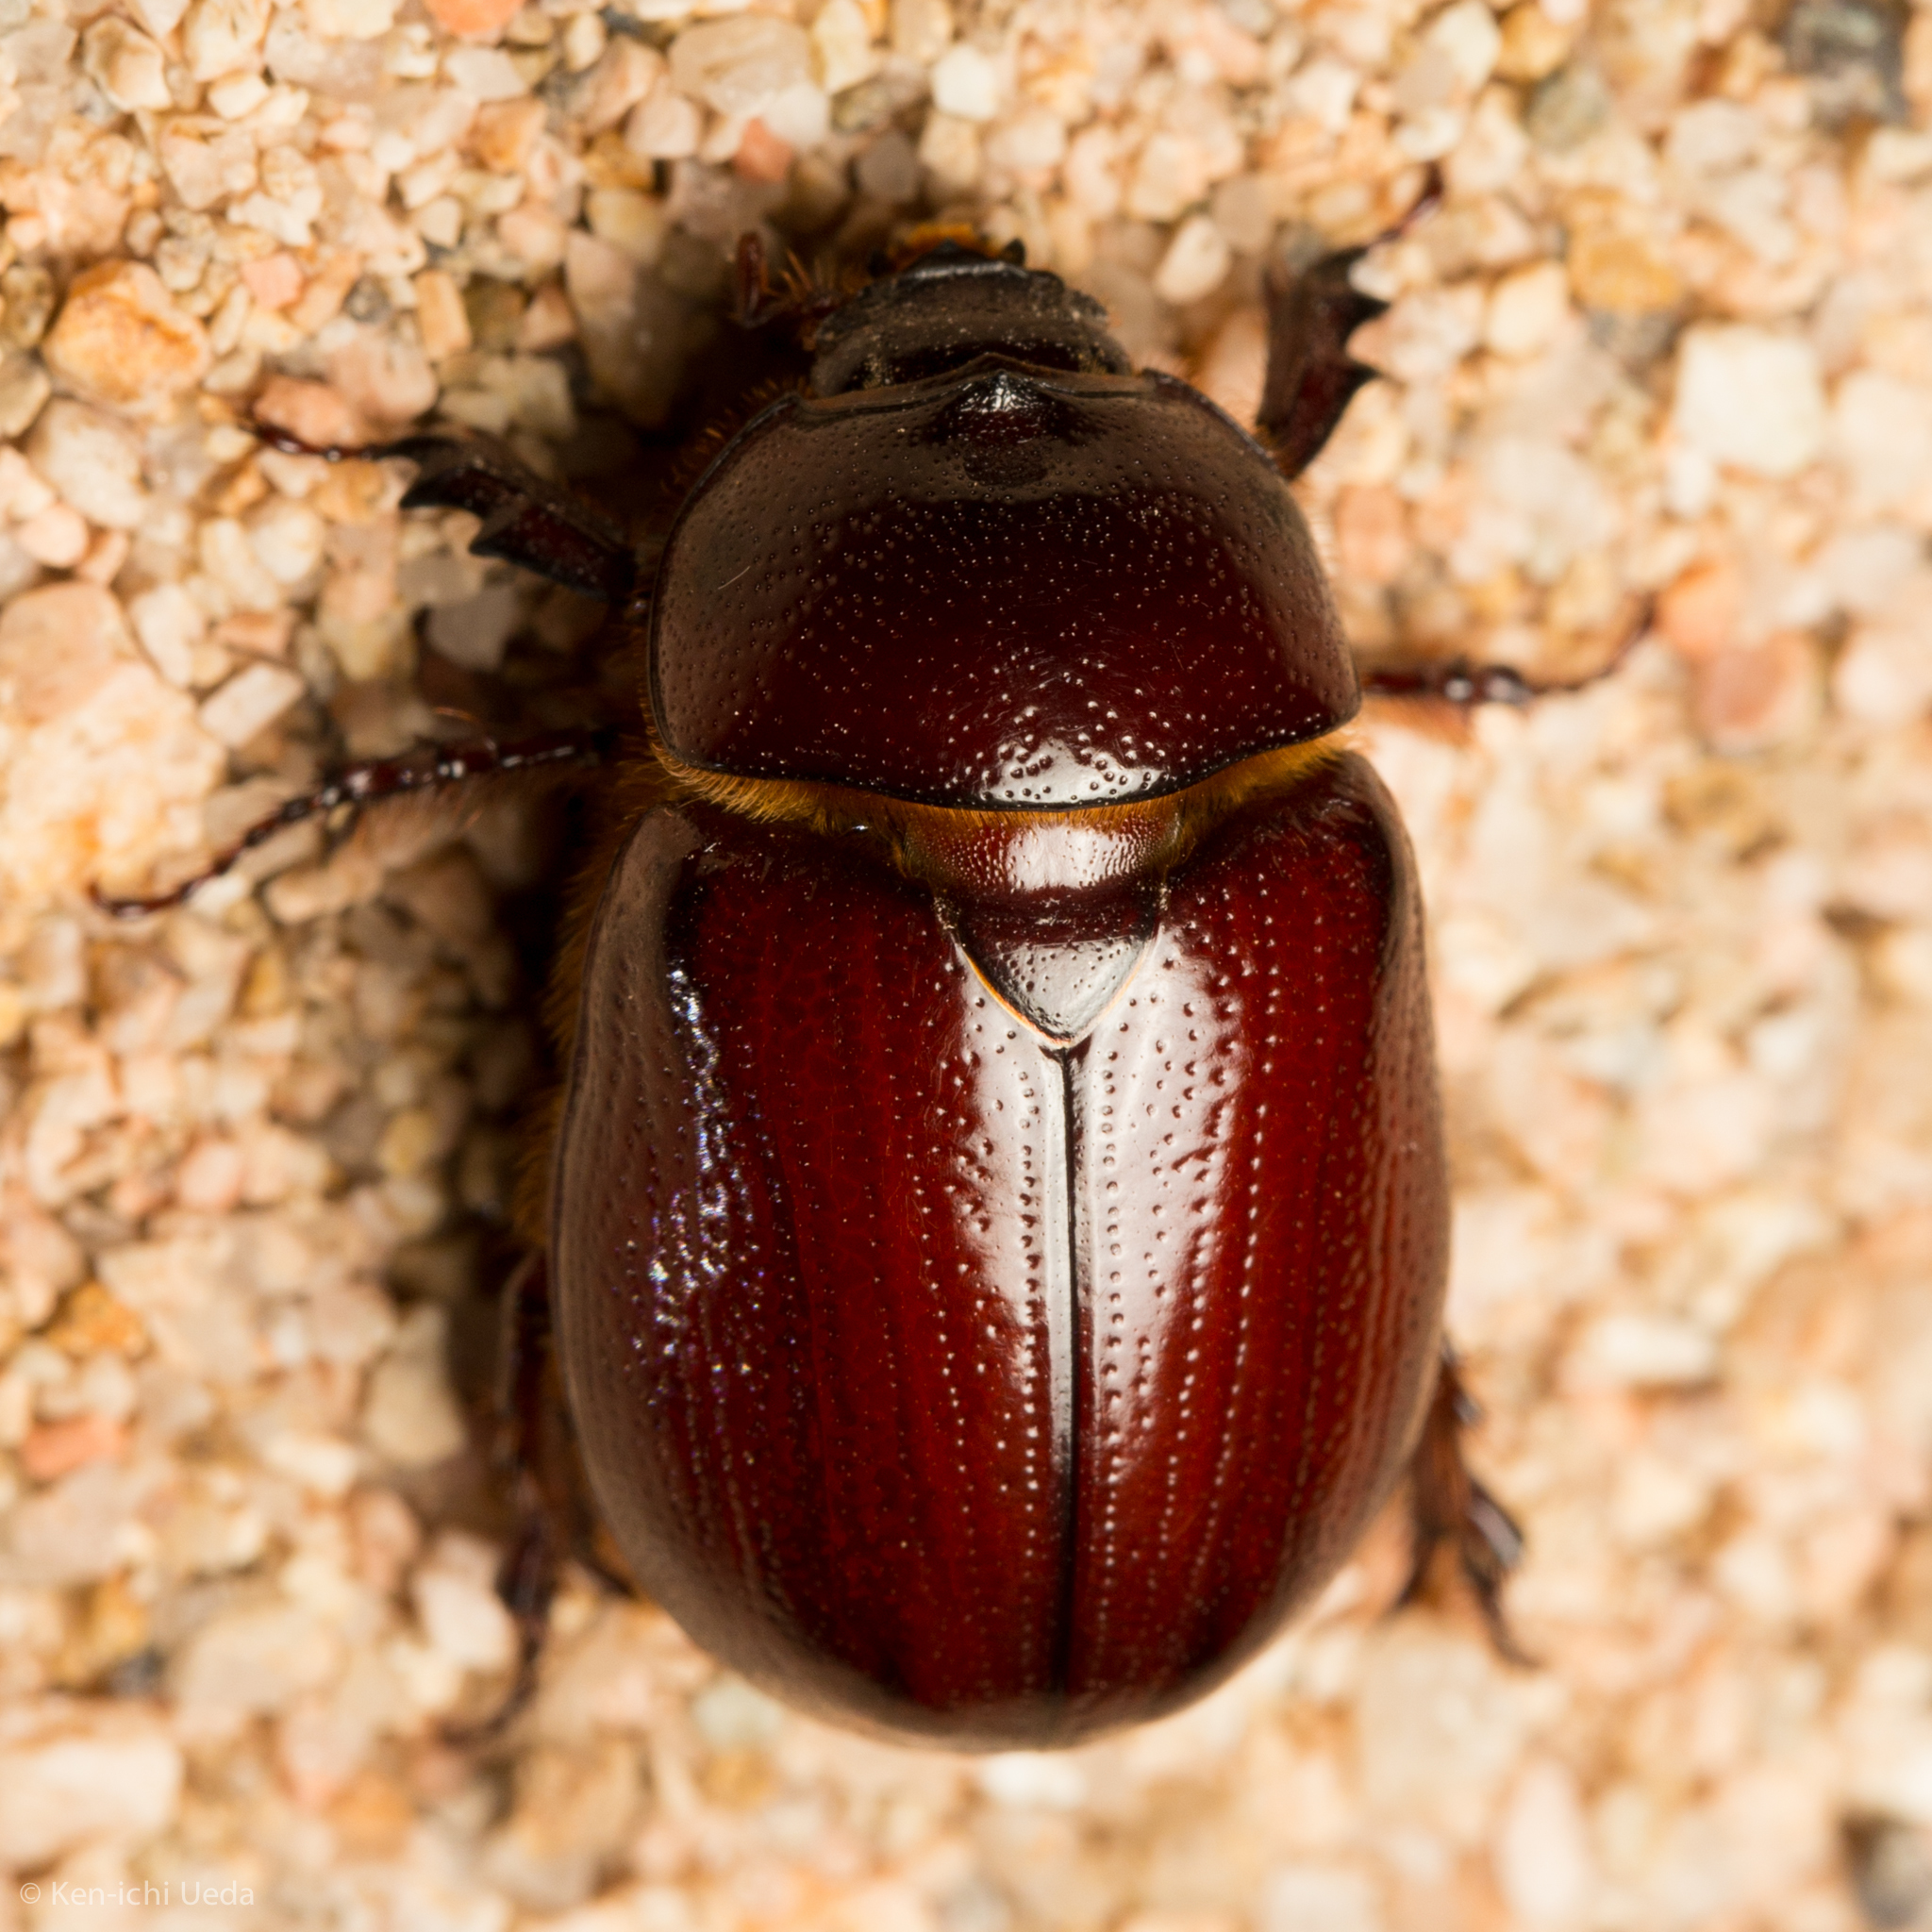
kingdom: Animalia
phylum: Arthropoda
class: Insecta
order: Coleoptera
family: Scarabaeidae
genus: Ligyrus
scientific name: Ligyrus peninsularis
